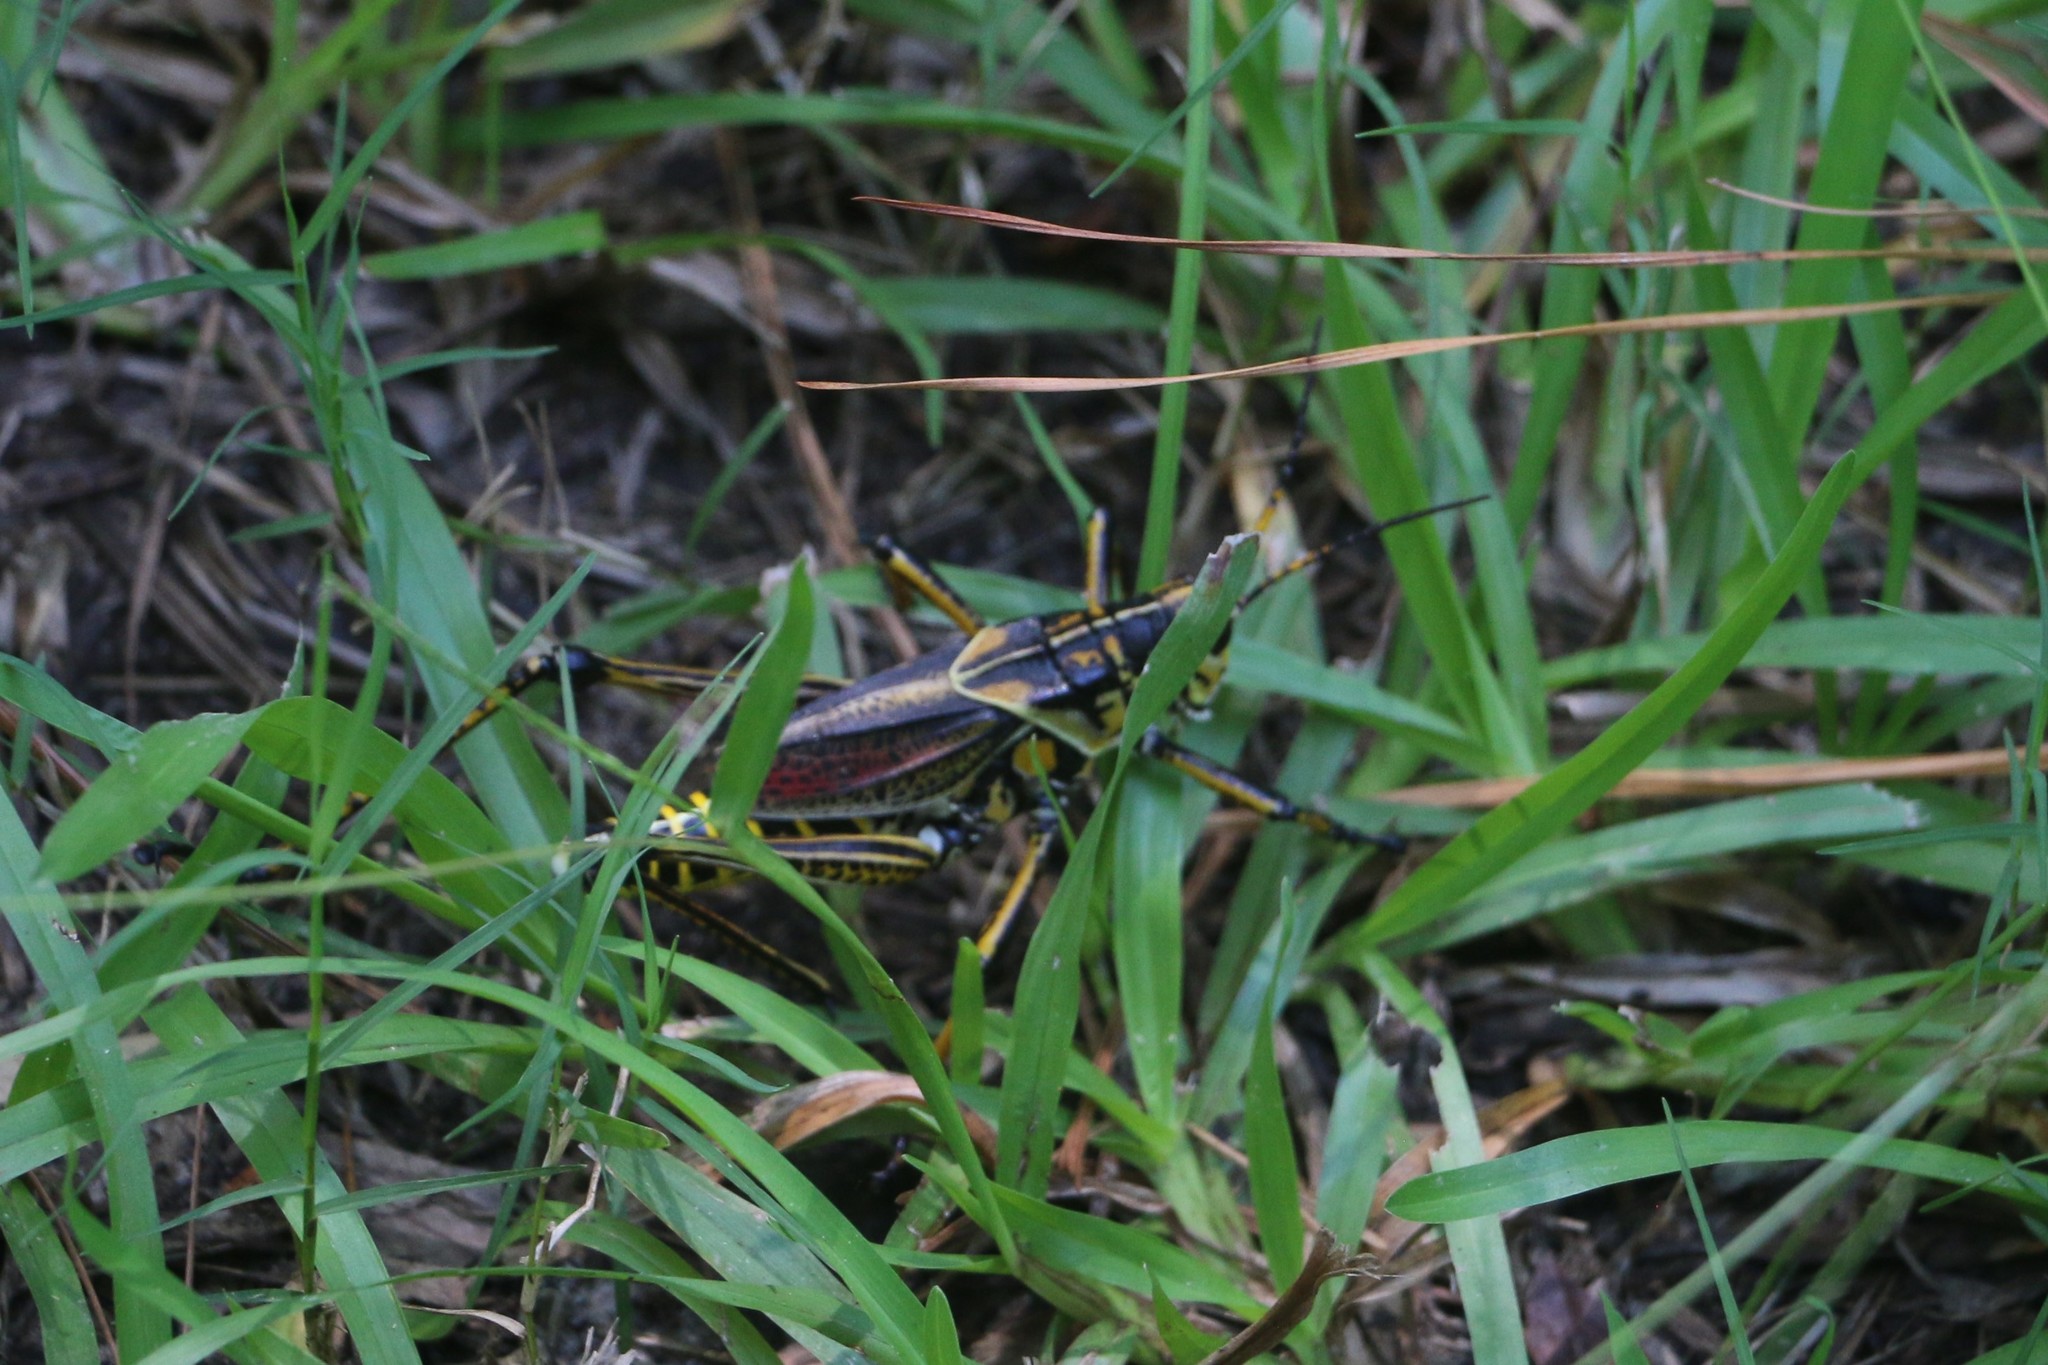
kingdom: Animalia
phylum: Arthropoda
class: Insecta
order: Orthoptera
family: Romaleidae
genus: Romalea
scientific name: Romalea microptera
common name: Eastern lubber grasshopper
